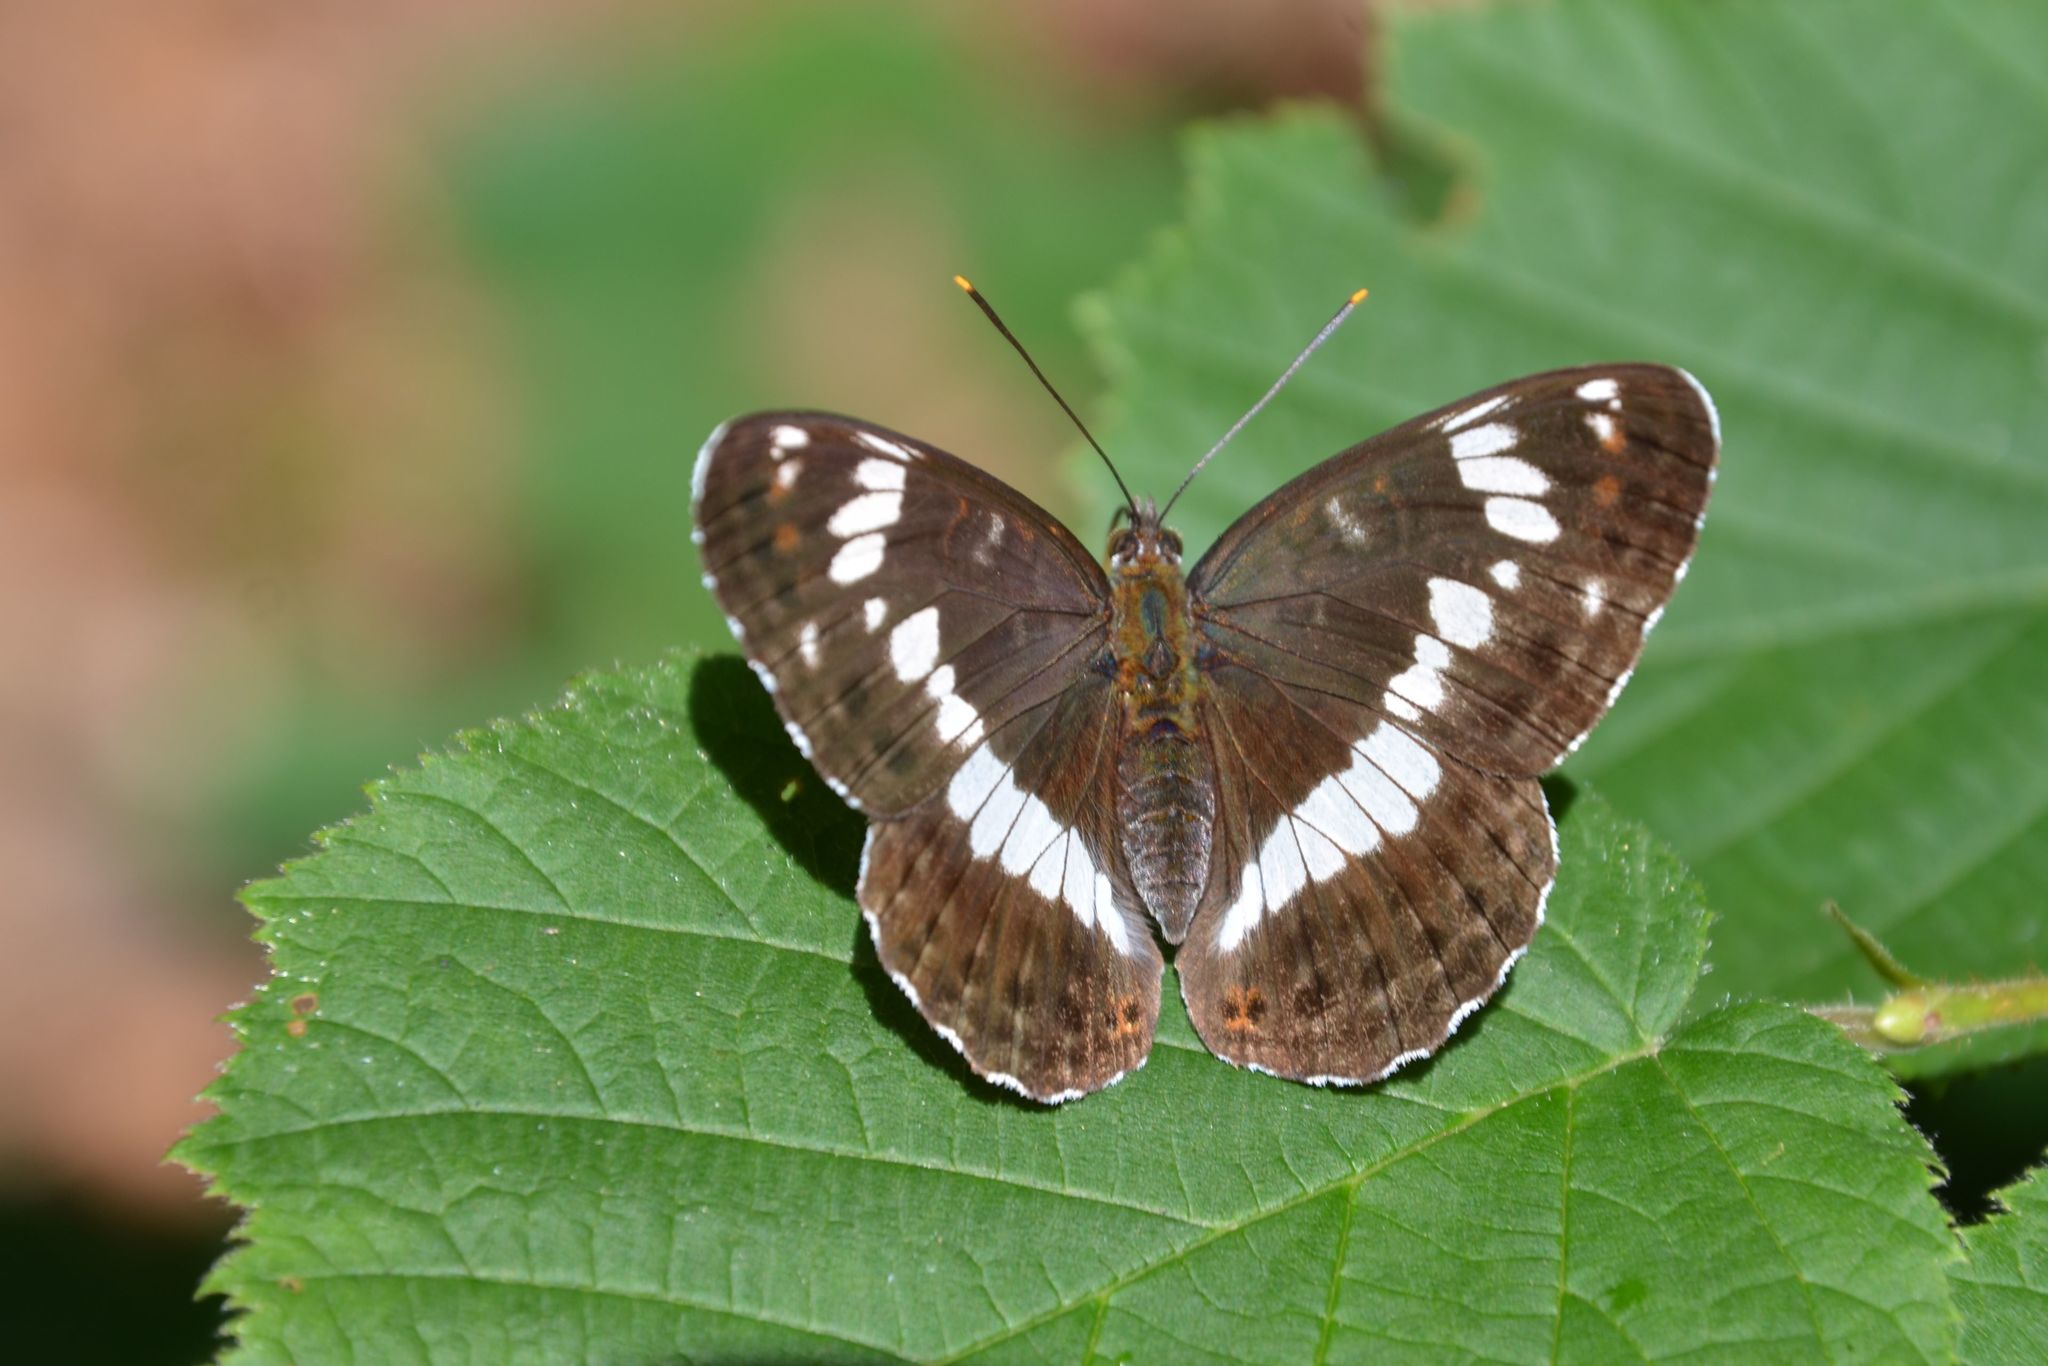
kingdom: Animalia
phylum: Arthropoda
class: Insecta
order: Lepidoptera
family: Nymphalidae
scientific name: Nymphalidae
